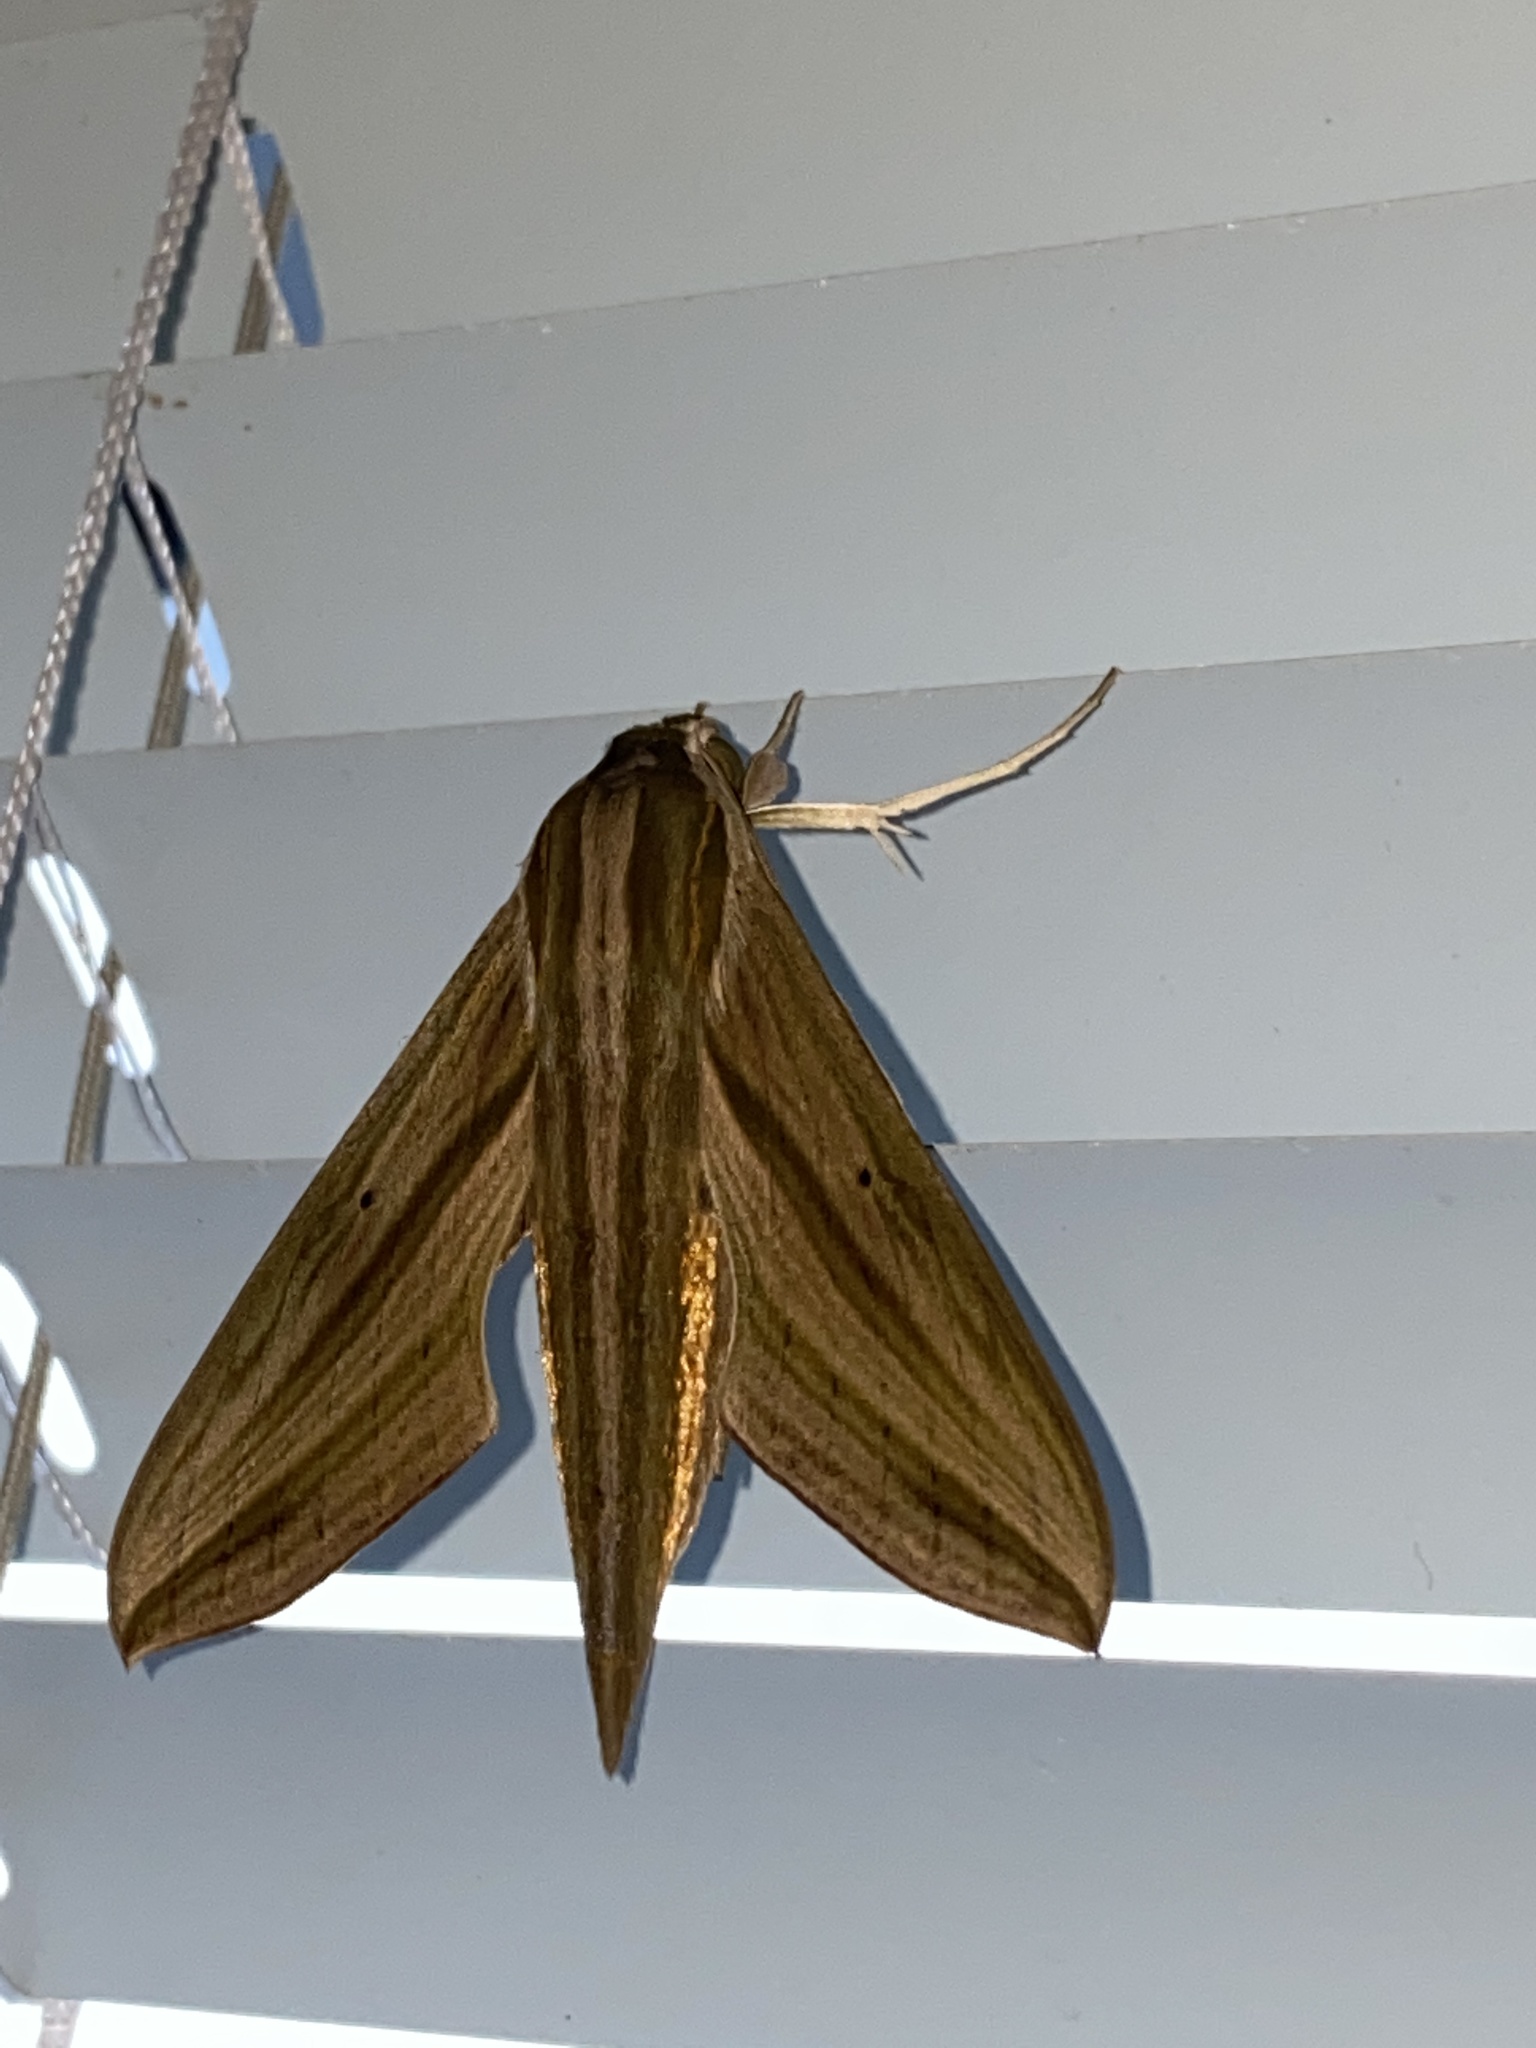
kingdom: Animalia
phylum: Arthropoda
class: Insecta
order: Lepidoptera
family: Sphingidae
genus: Hippotion
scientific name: Hippotion eson
